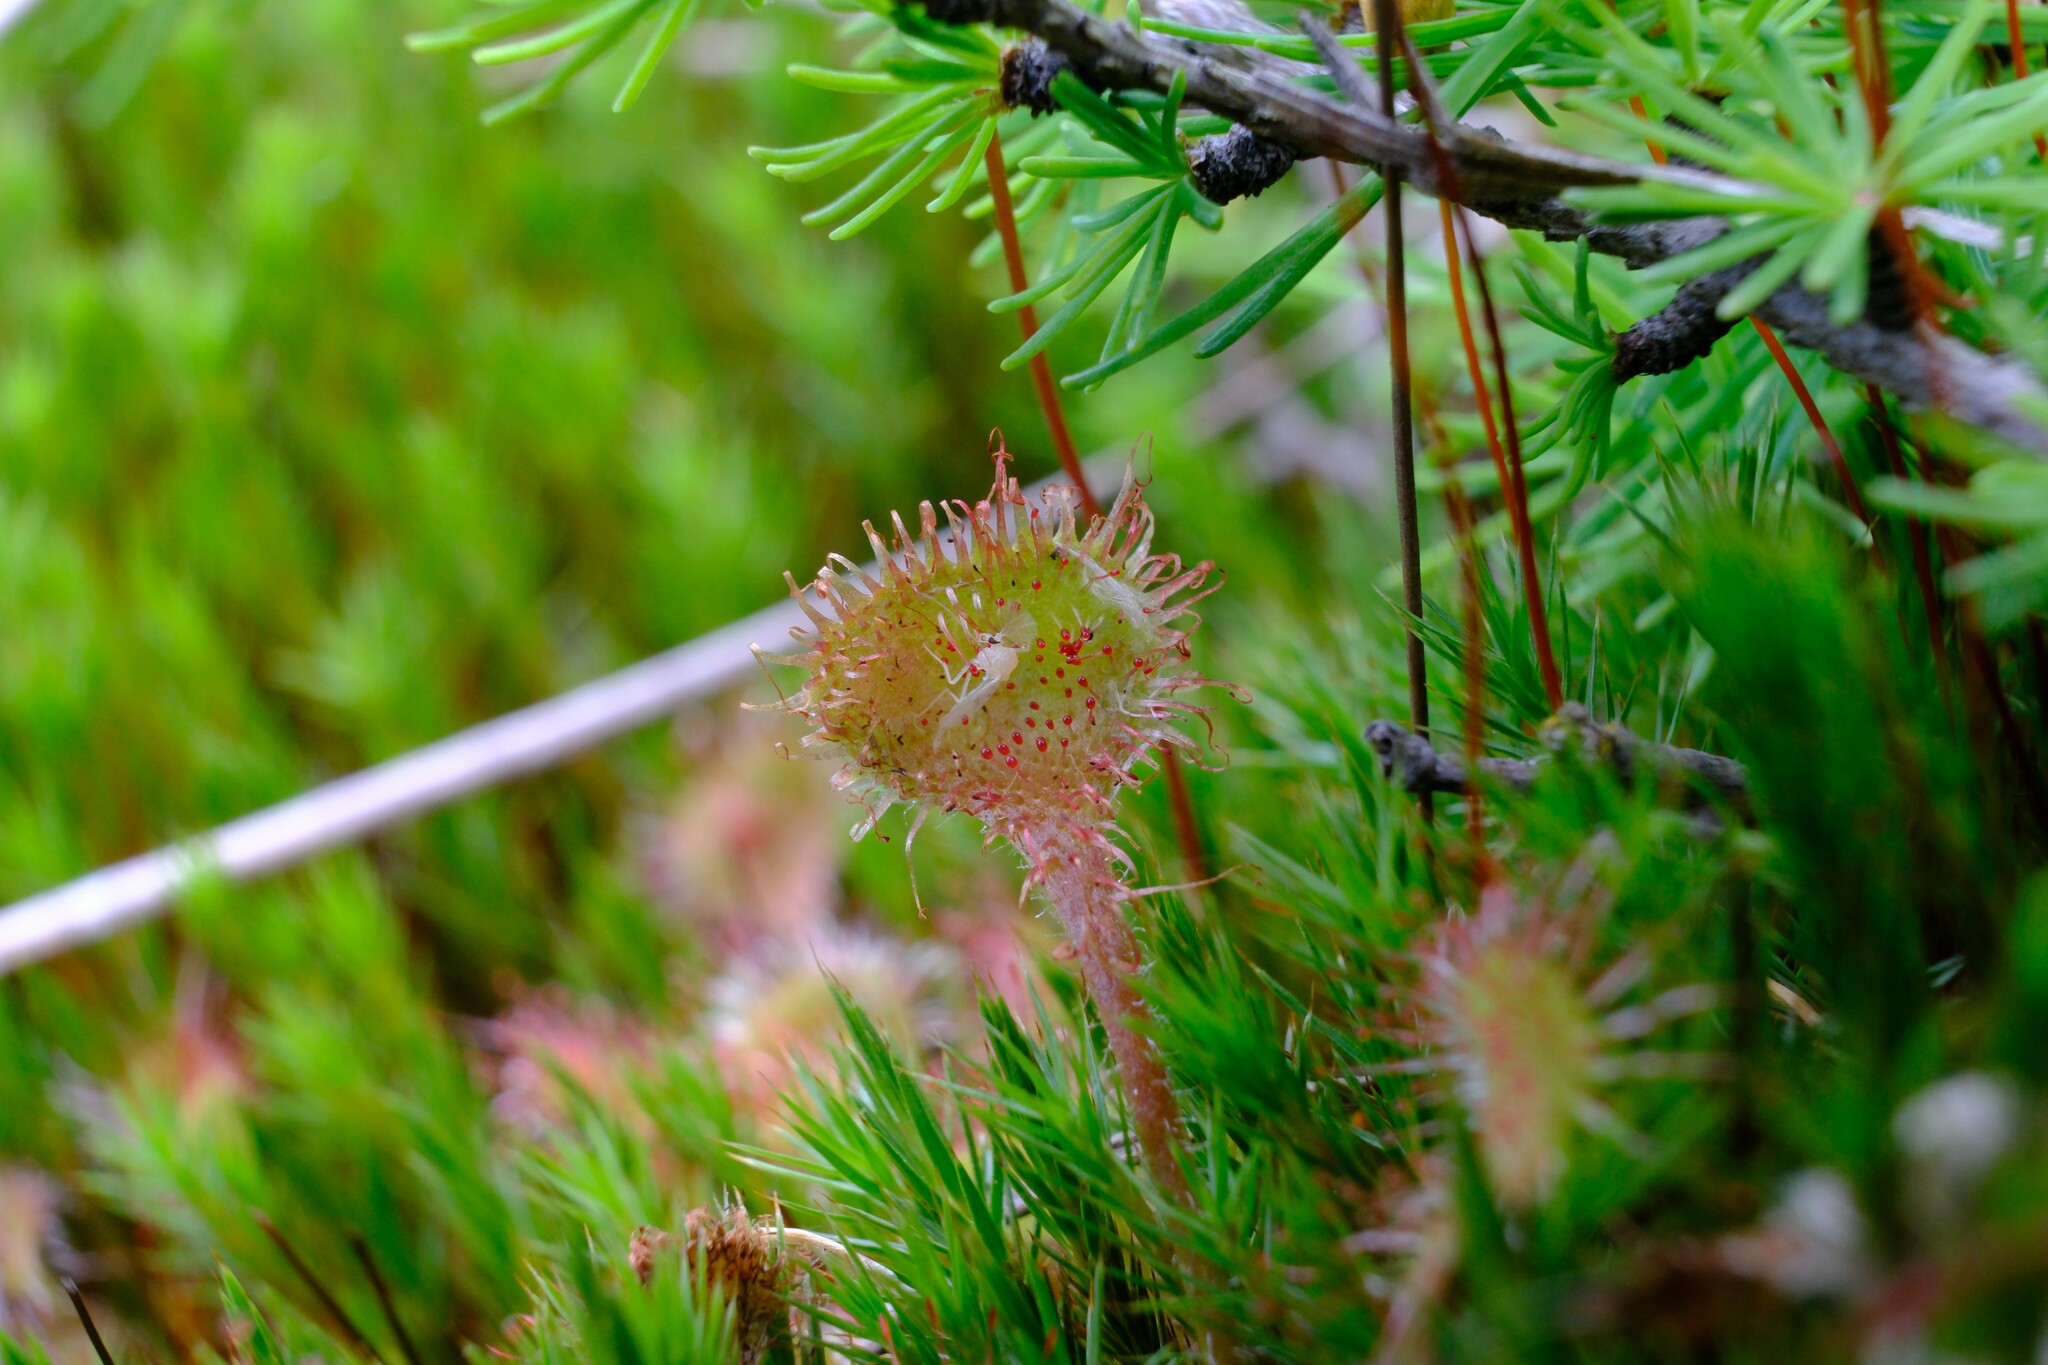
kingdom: Plantae
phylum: Tracheophyta
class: Magnoliopsida
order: Caryophyllales
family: Droseraceae
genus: Drosera
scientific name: Drosera rotundifolia
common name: Round-leaved sundew
